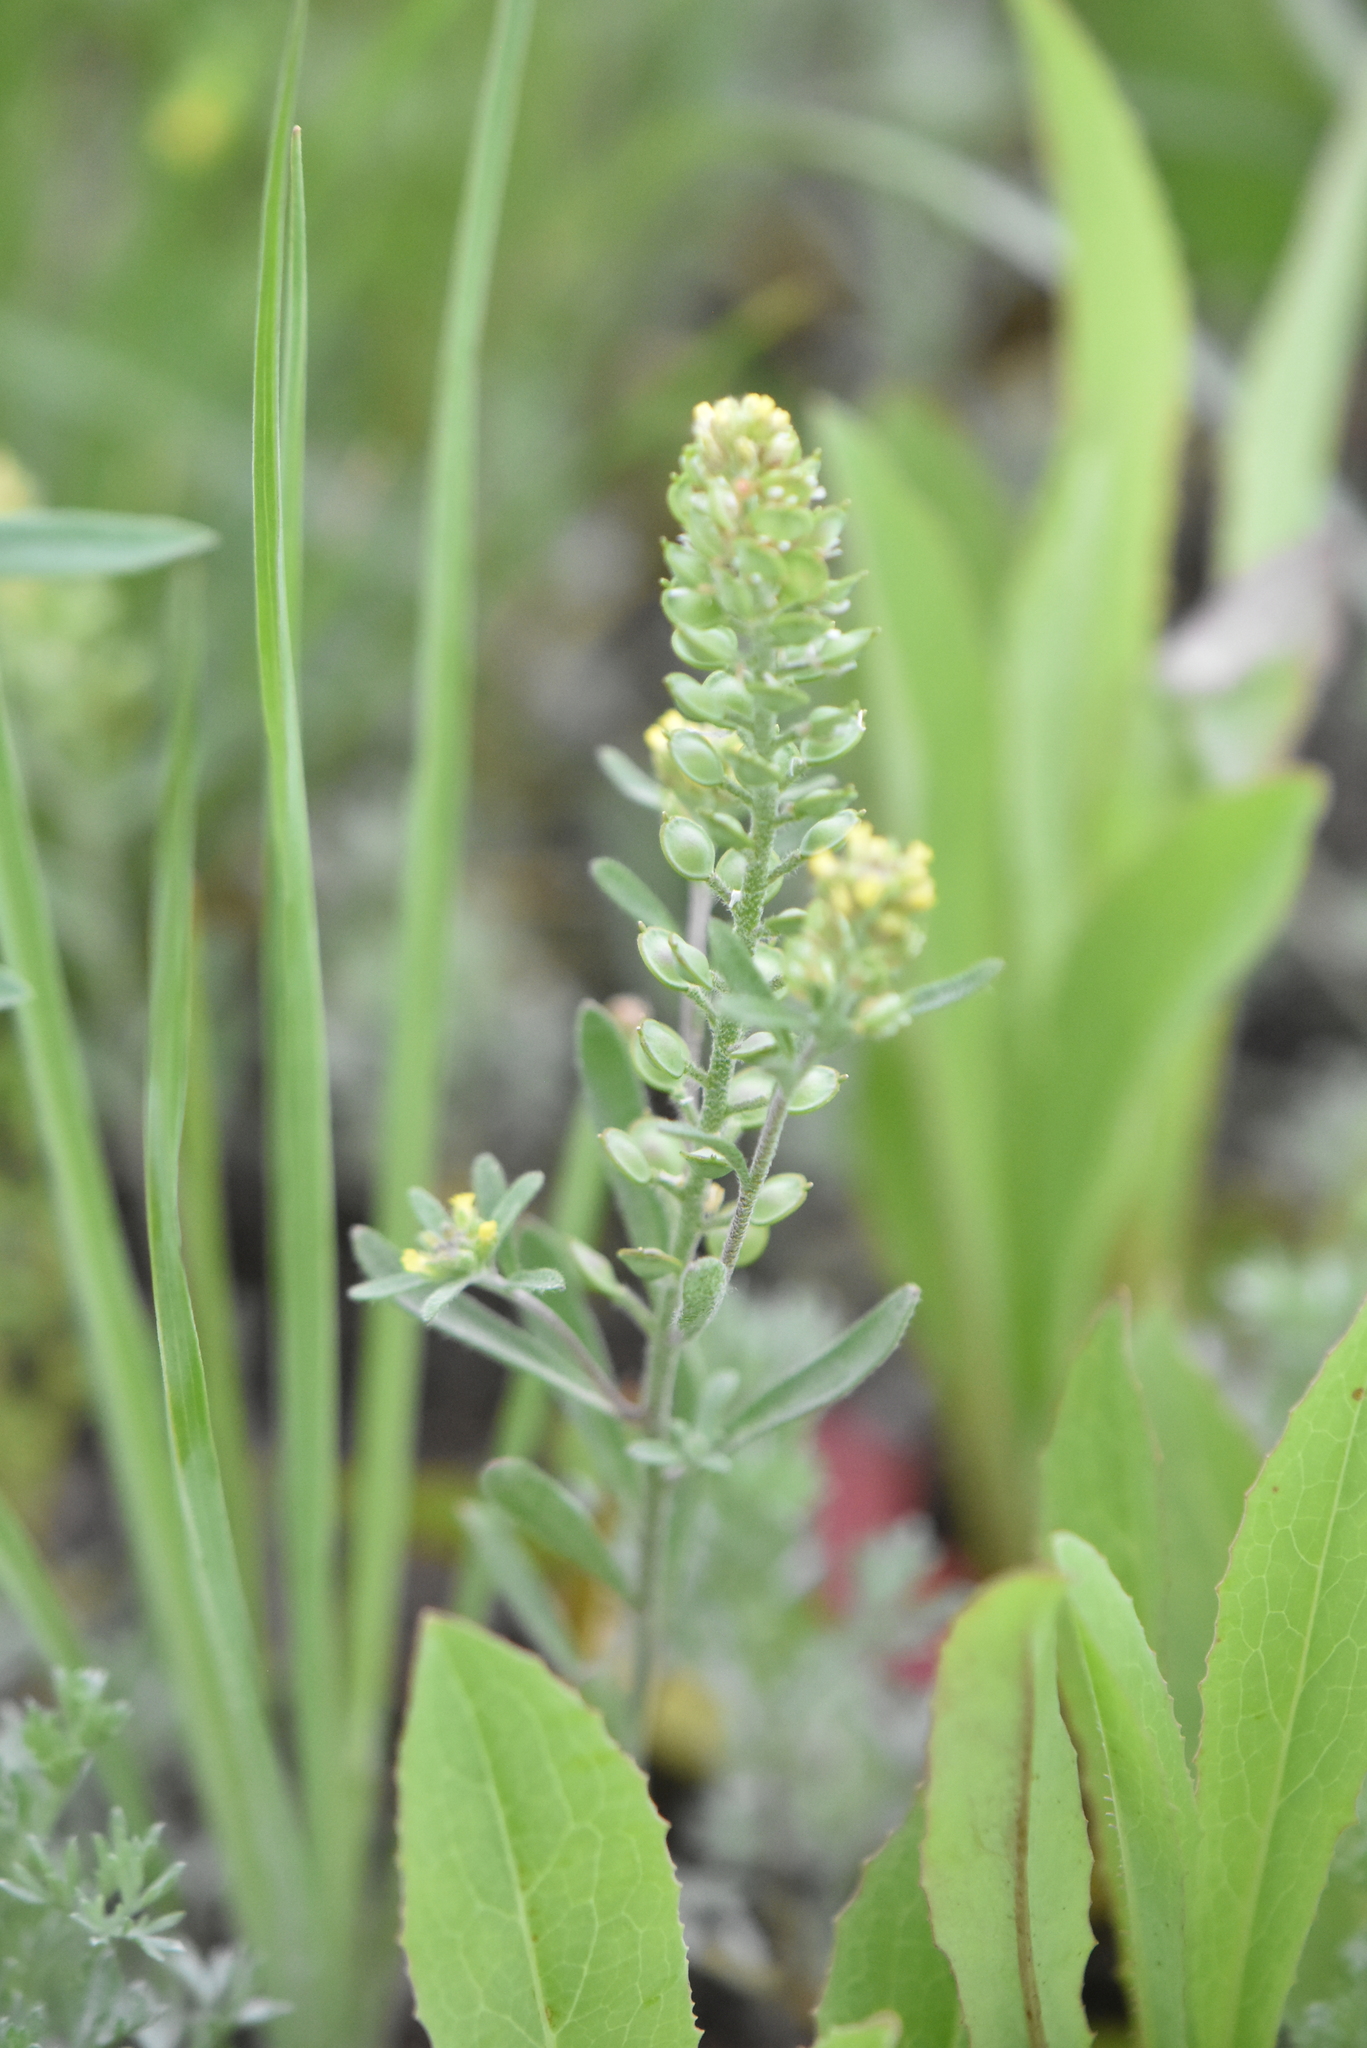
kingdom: Plantae
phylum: Tracheophyta
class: Magnoliopsida
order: Brassicales
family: Brassicaceae
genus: Alyssum
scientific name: Alyssum turkestanicum
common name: Desert alyssum
